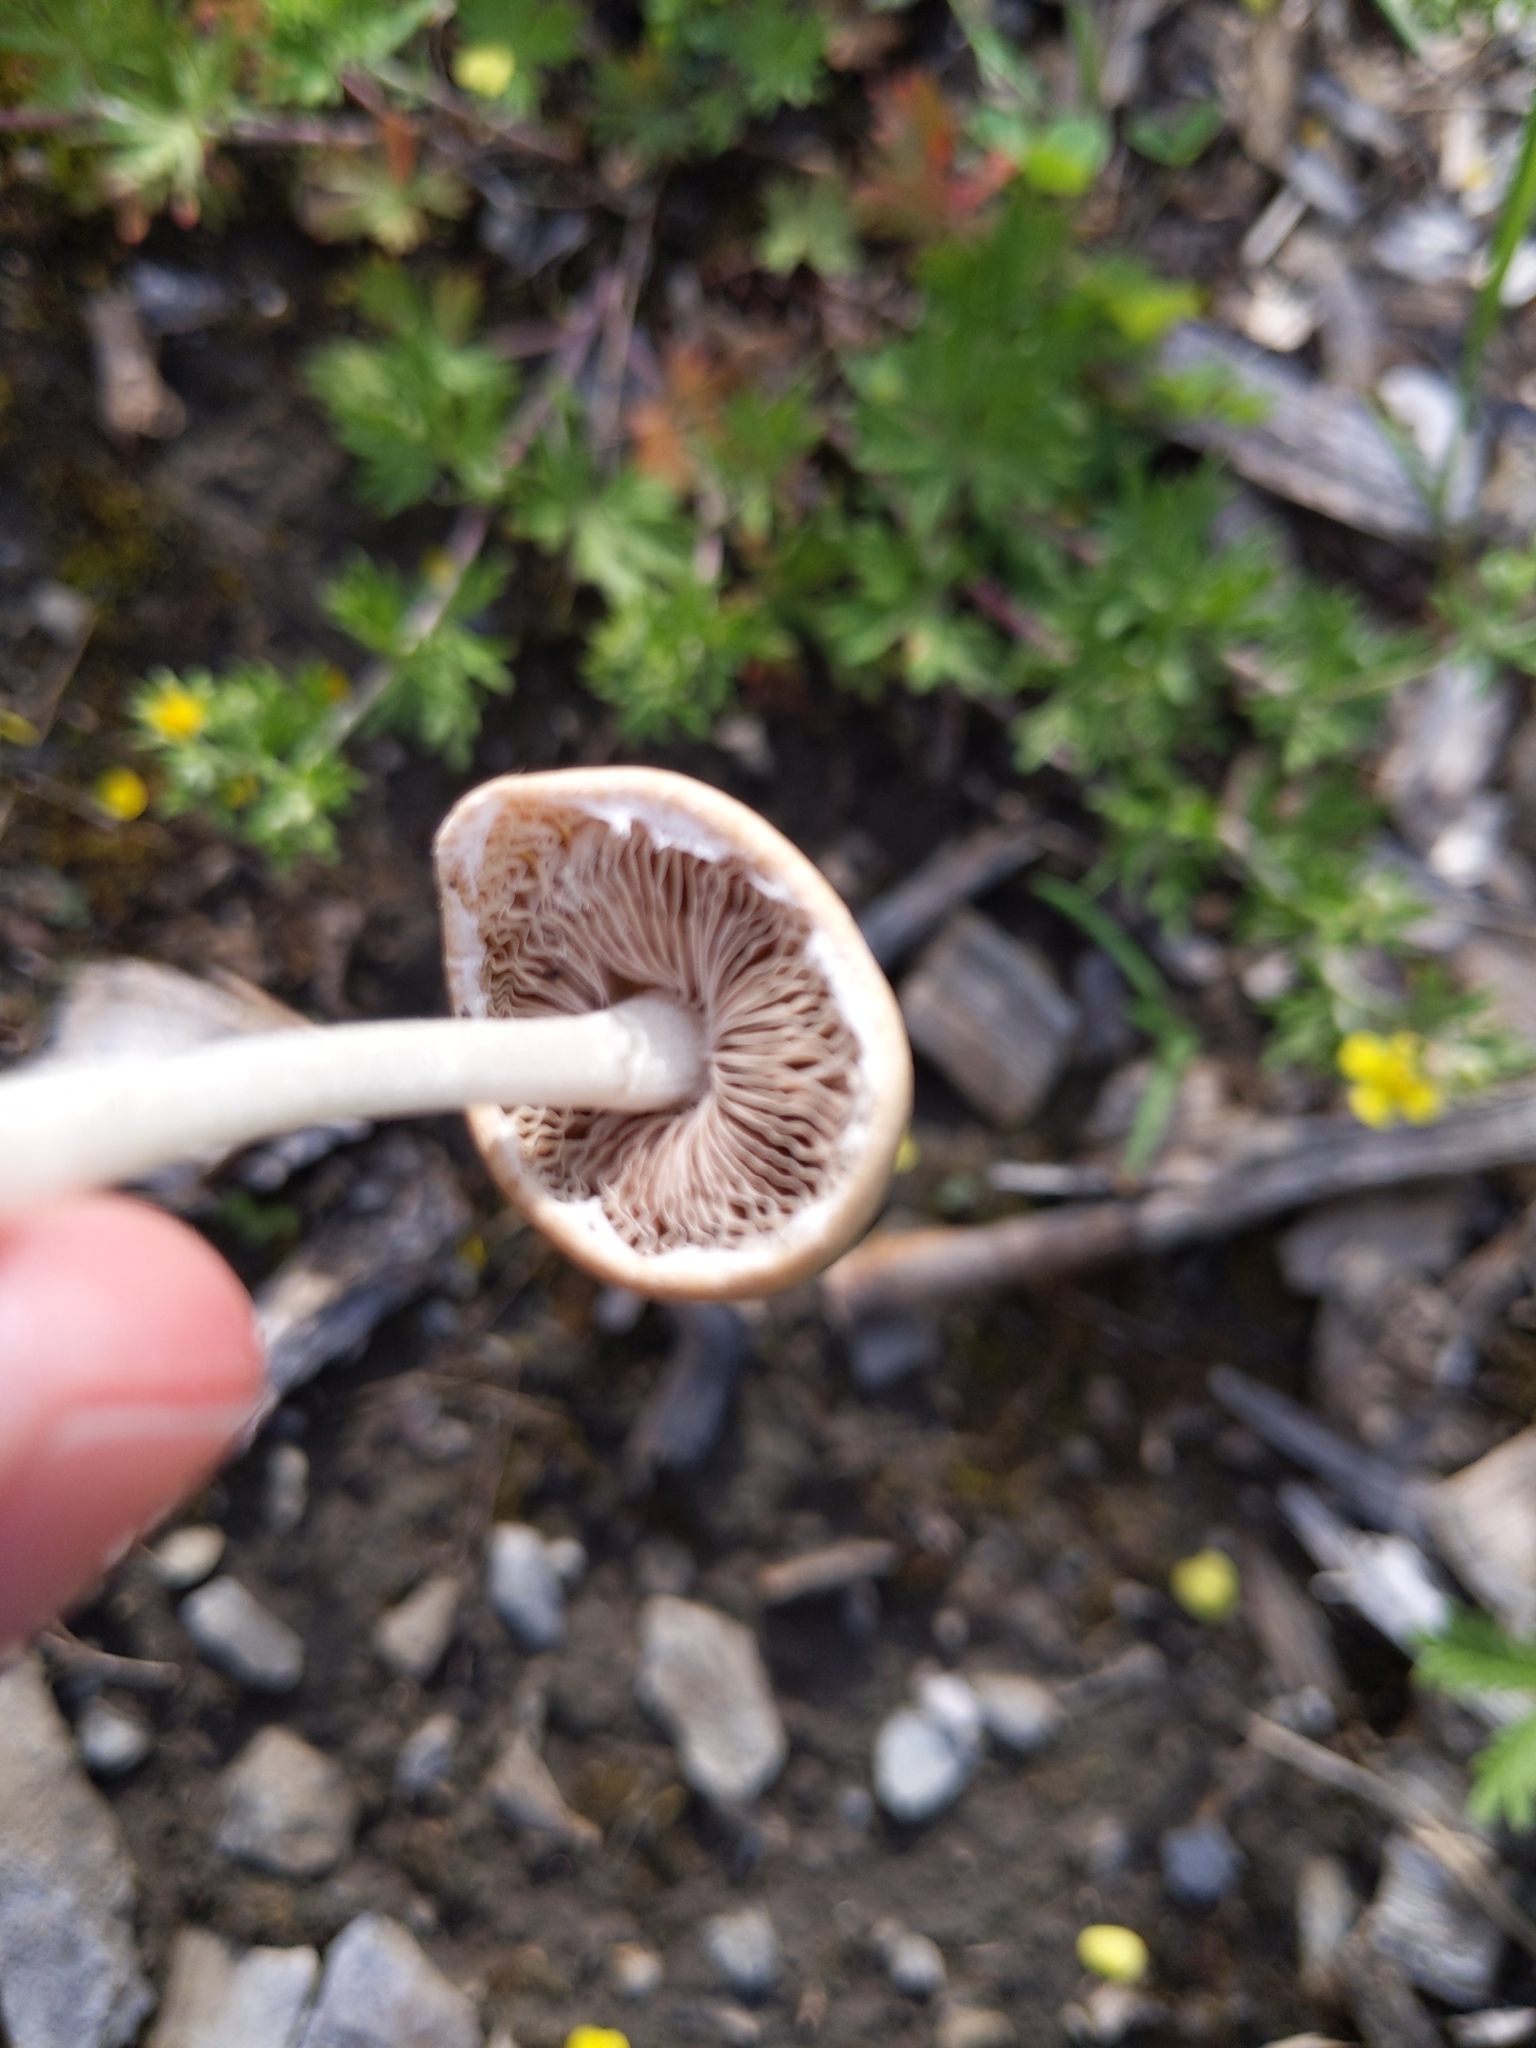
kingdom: Fungi
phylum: Basidiomycota
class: Agaricomycetes
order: Agaricales
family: Psathyrellaceae
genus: Candolleomyces
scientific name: Candolleomyces candolleanus
